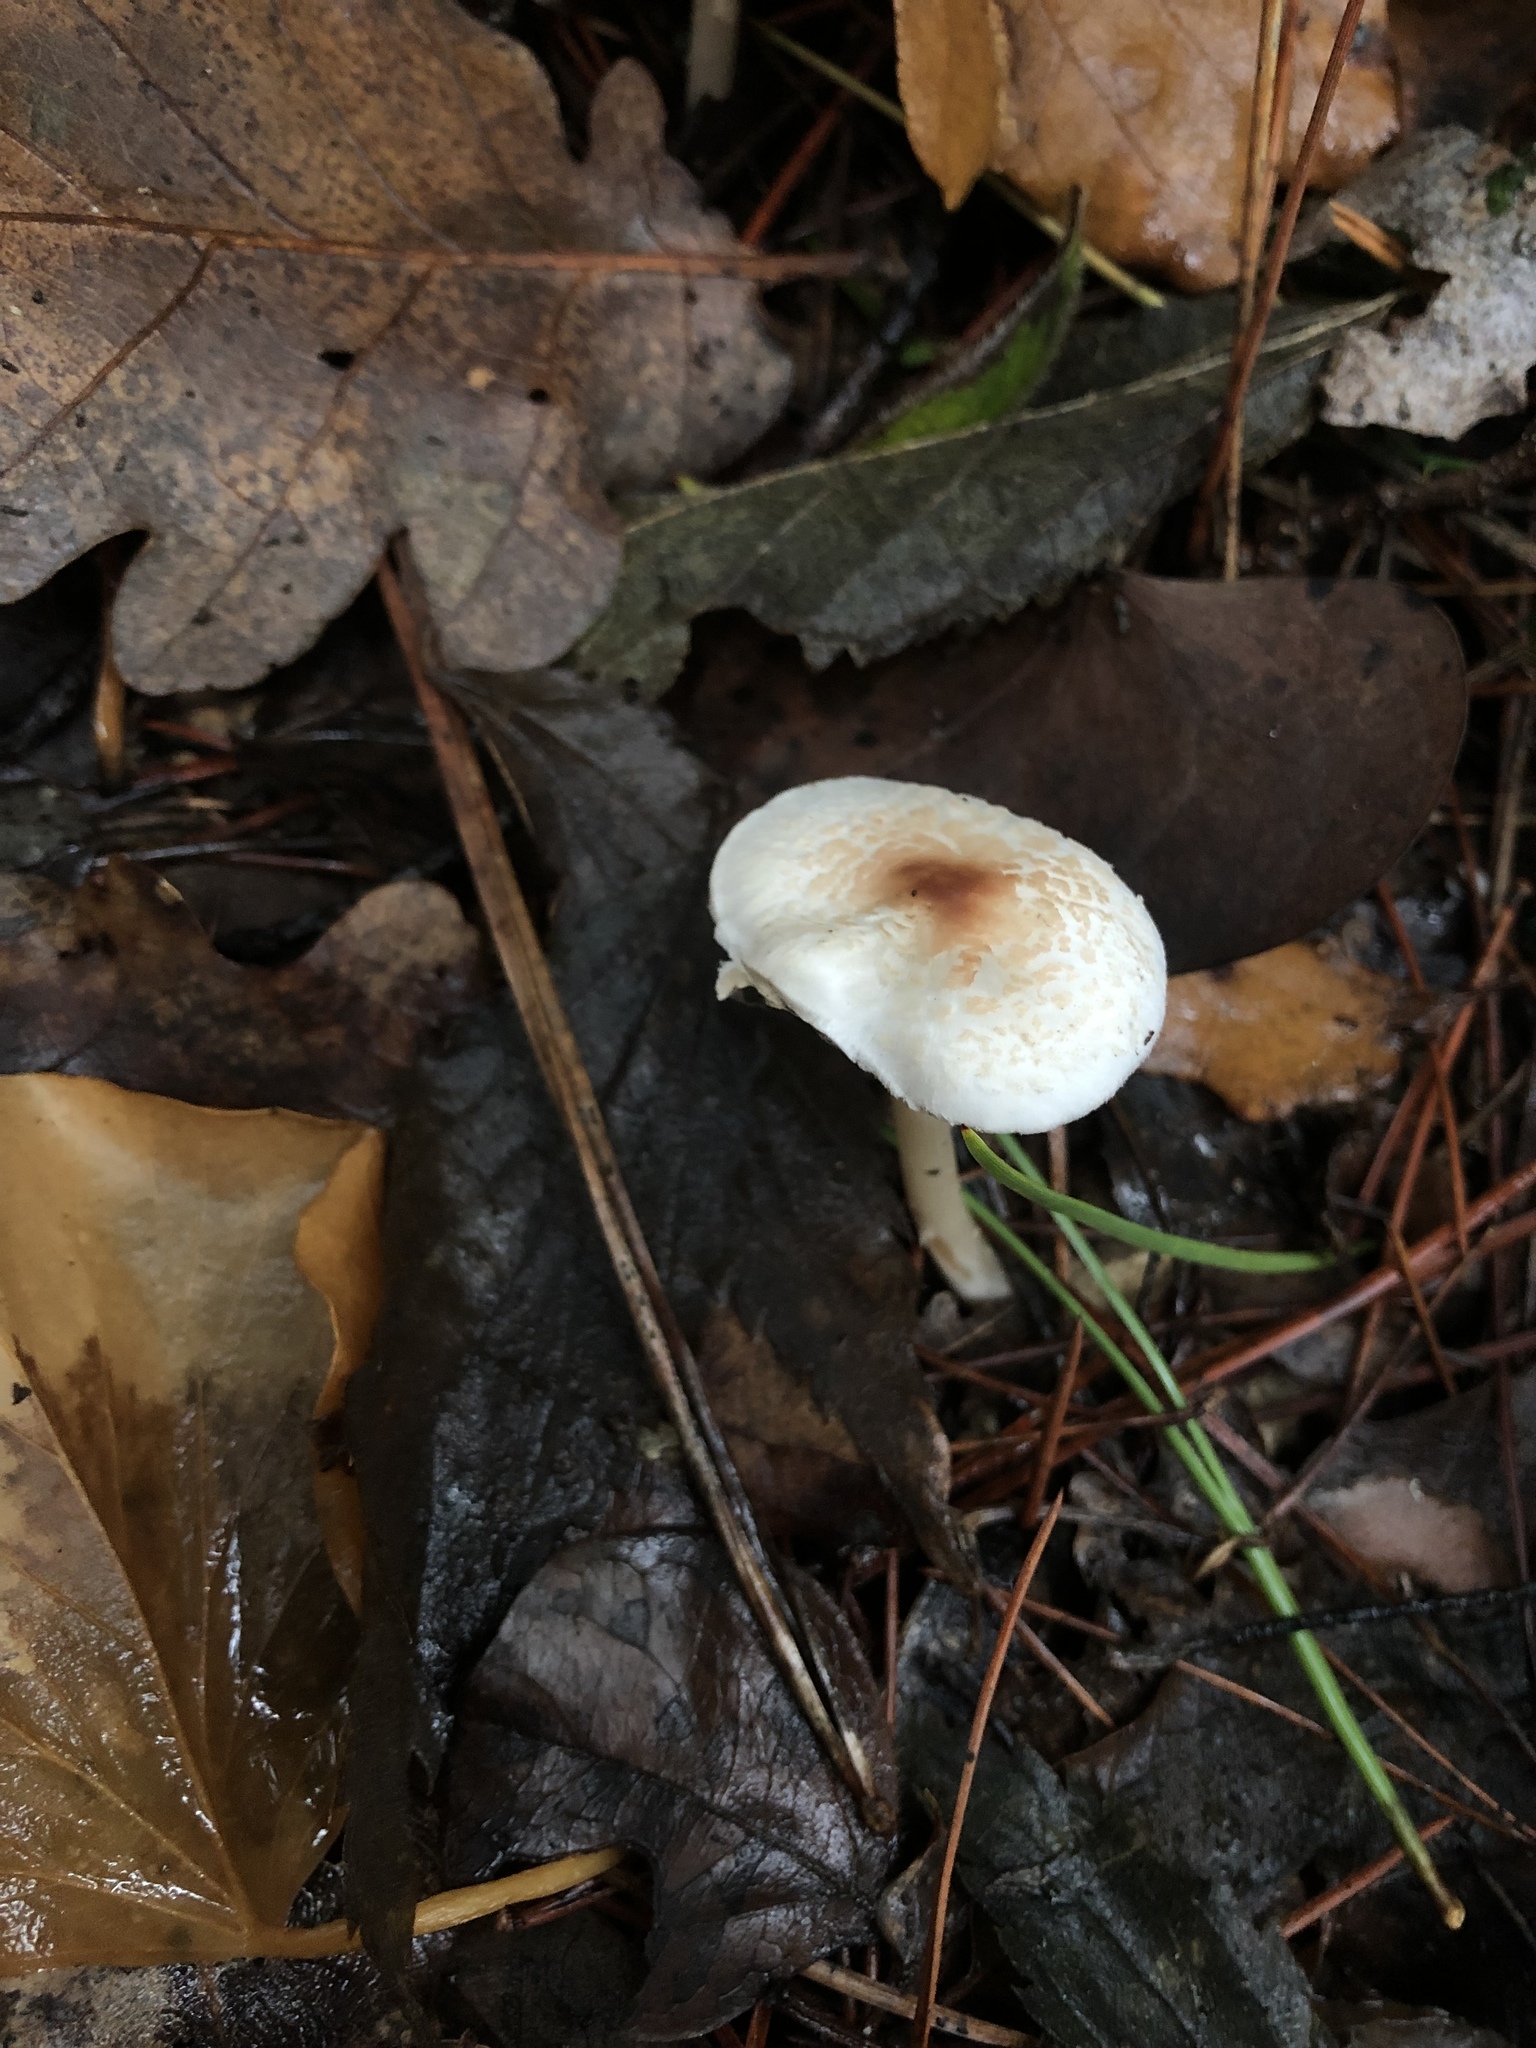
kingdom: Fungi
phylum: Basidiomycota
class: Agaricomycetes
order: Agaricales
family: Agaricaceae
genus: Lepiota
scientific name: Lepiota cristata
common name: Stinking dapperling
